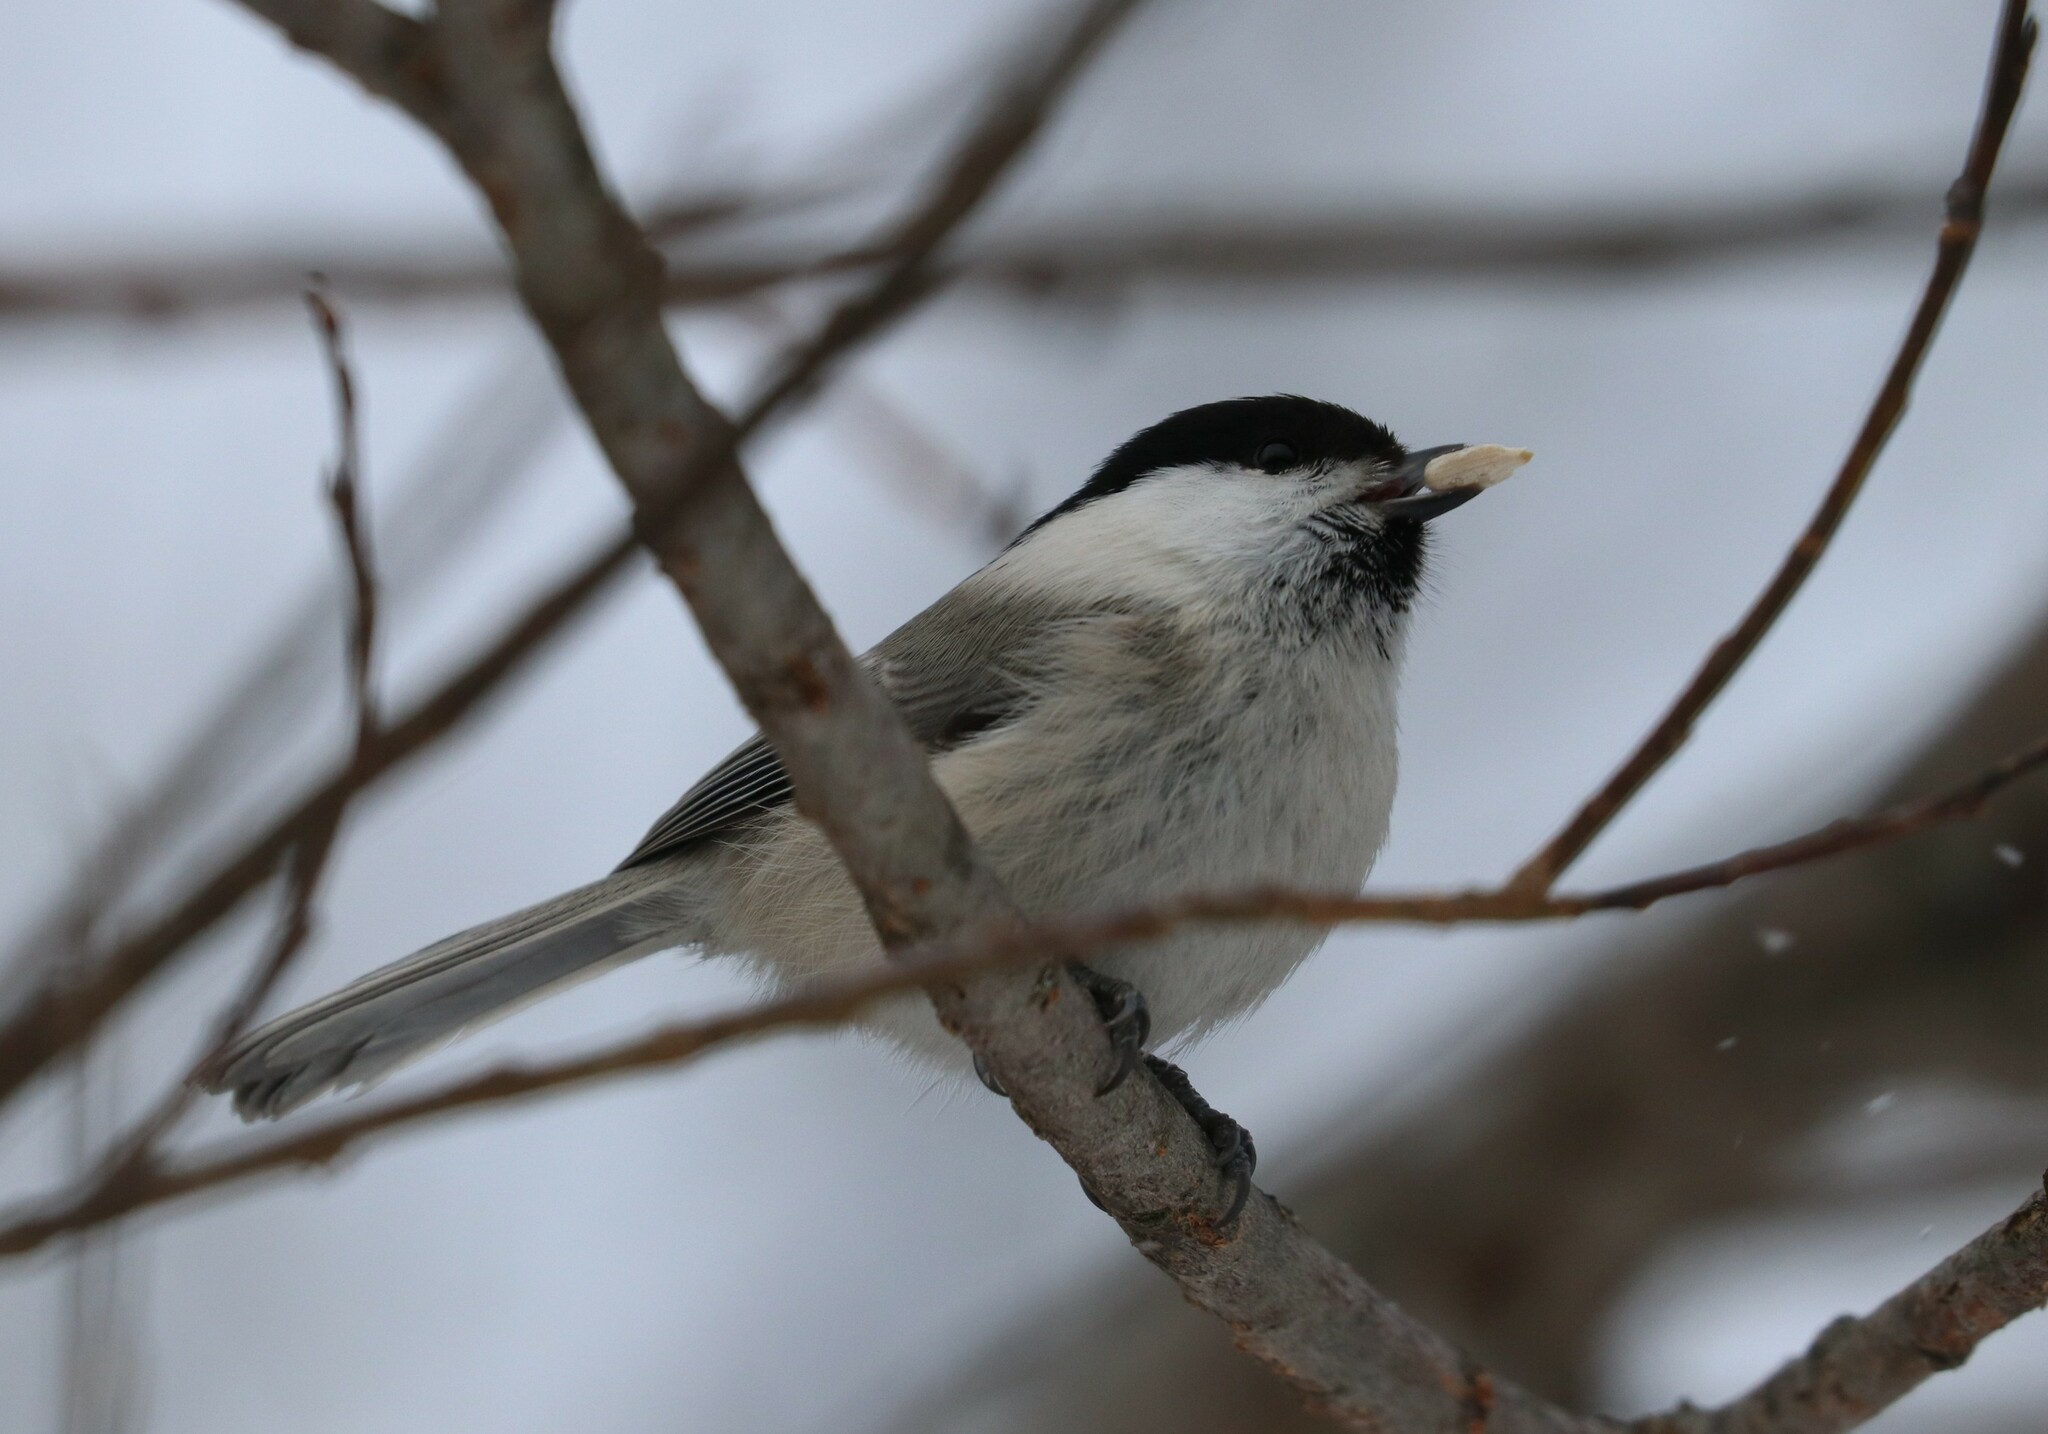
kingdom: Animalia
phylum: Chordata
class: Aves
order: Passeriformes
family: Paridae
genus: Poecile
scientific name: Poecile montanus
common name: Willow tit
